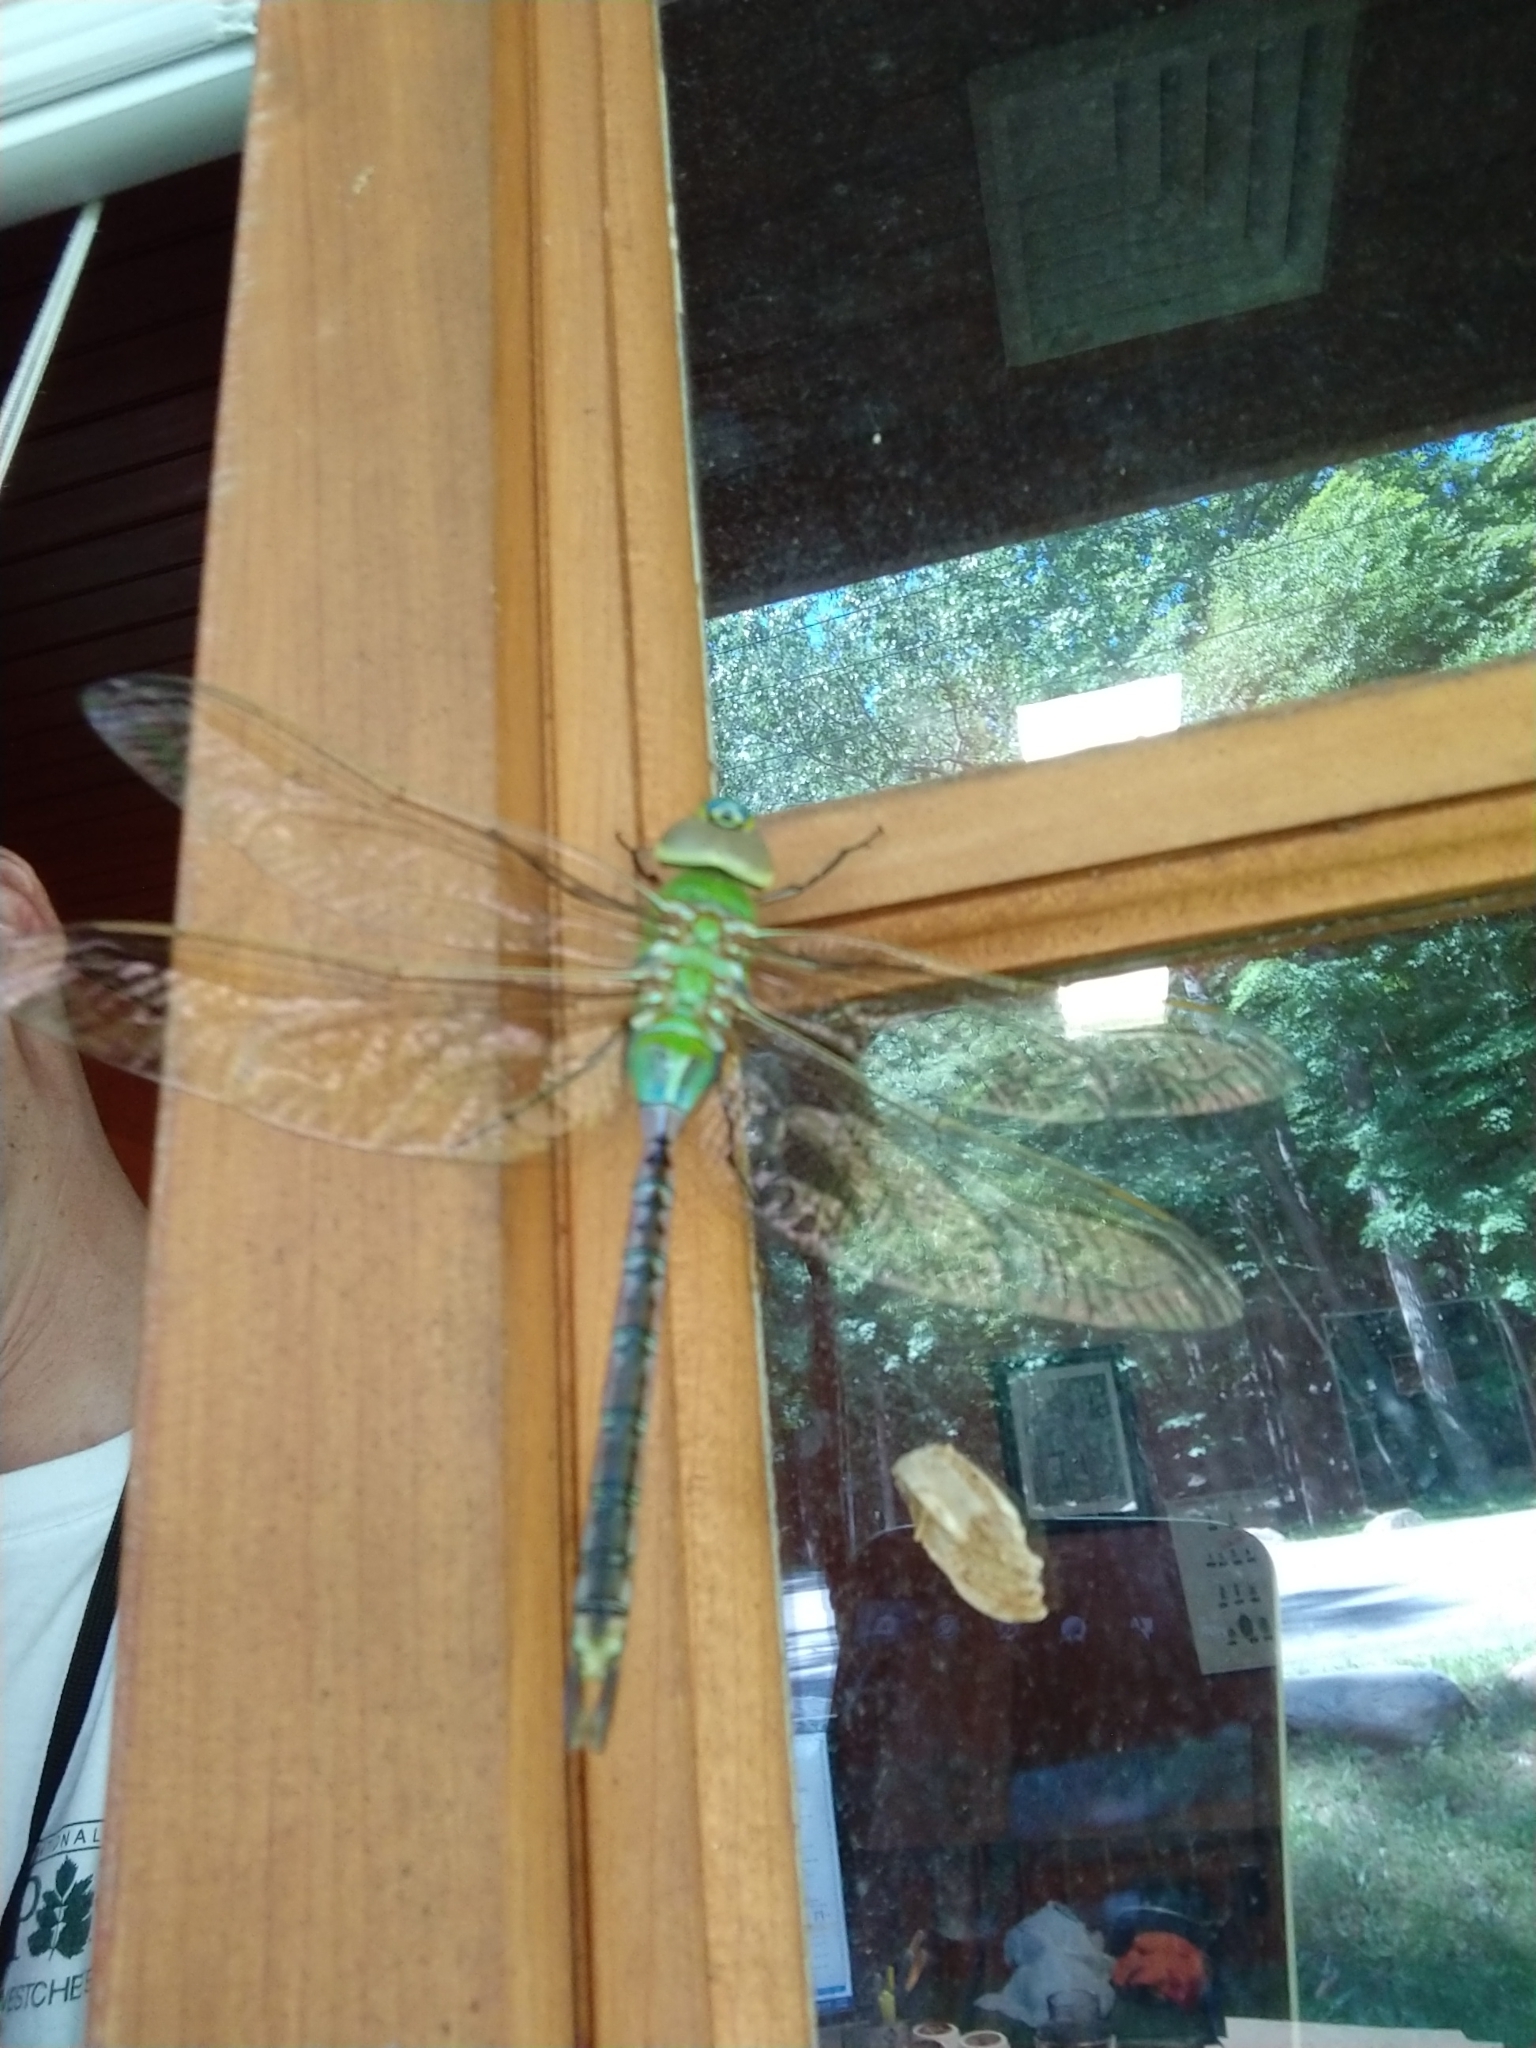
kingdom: Animalia
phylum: Arthropoda
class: Insecta
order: Odonata
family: Aeshnidae
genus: Anax
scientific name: Anax junius
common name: Common green darner
